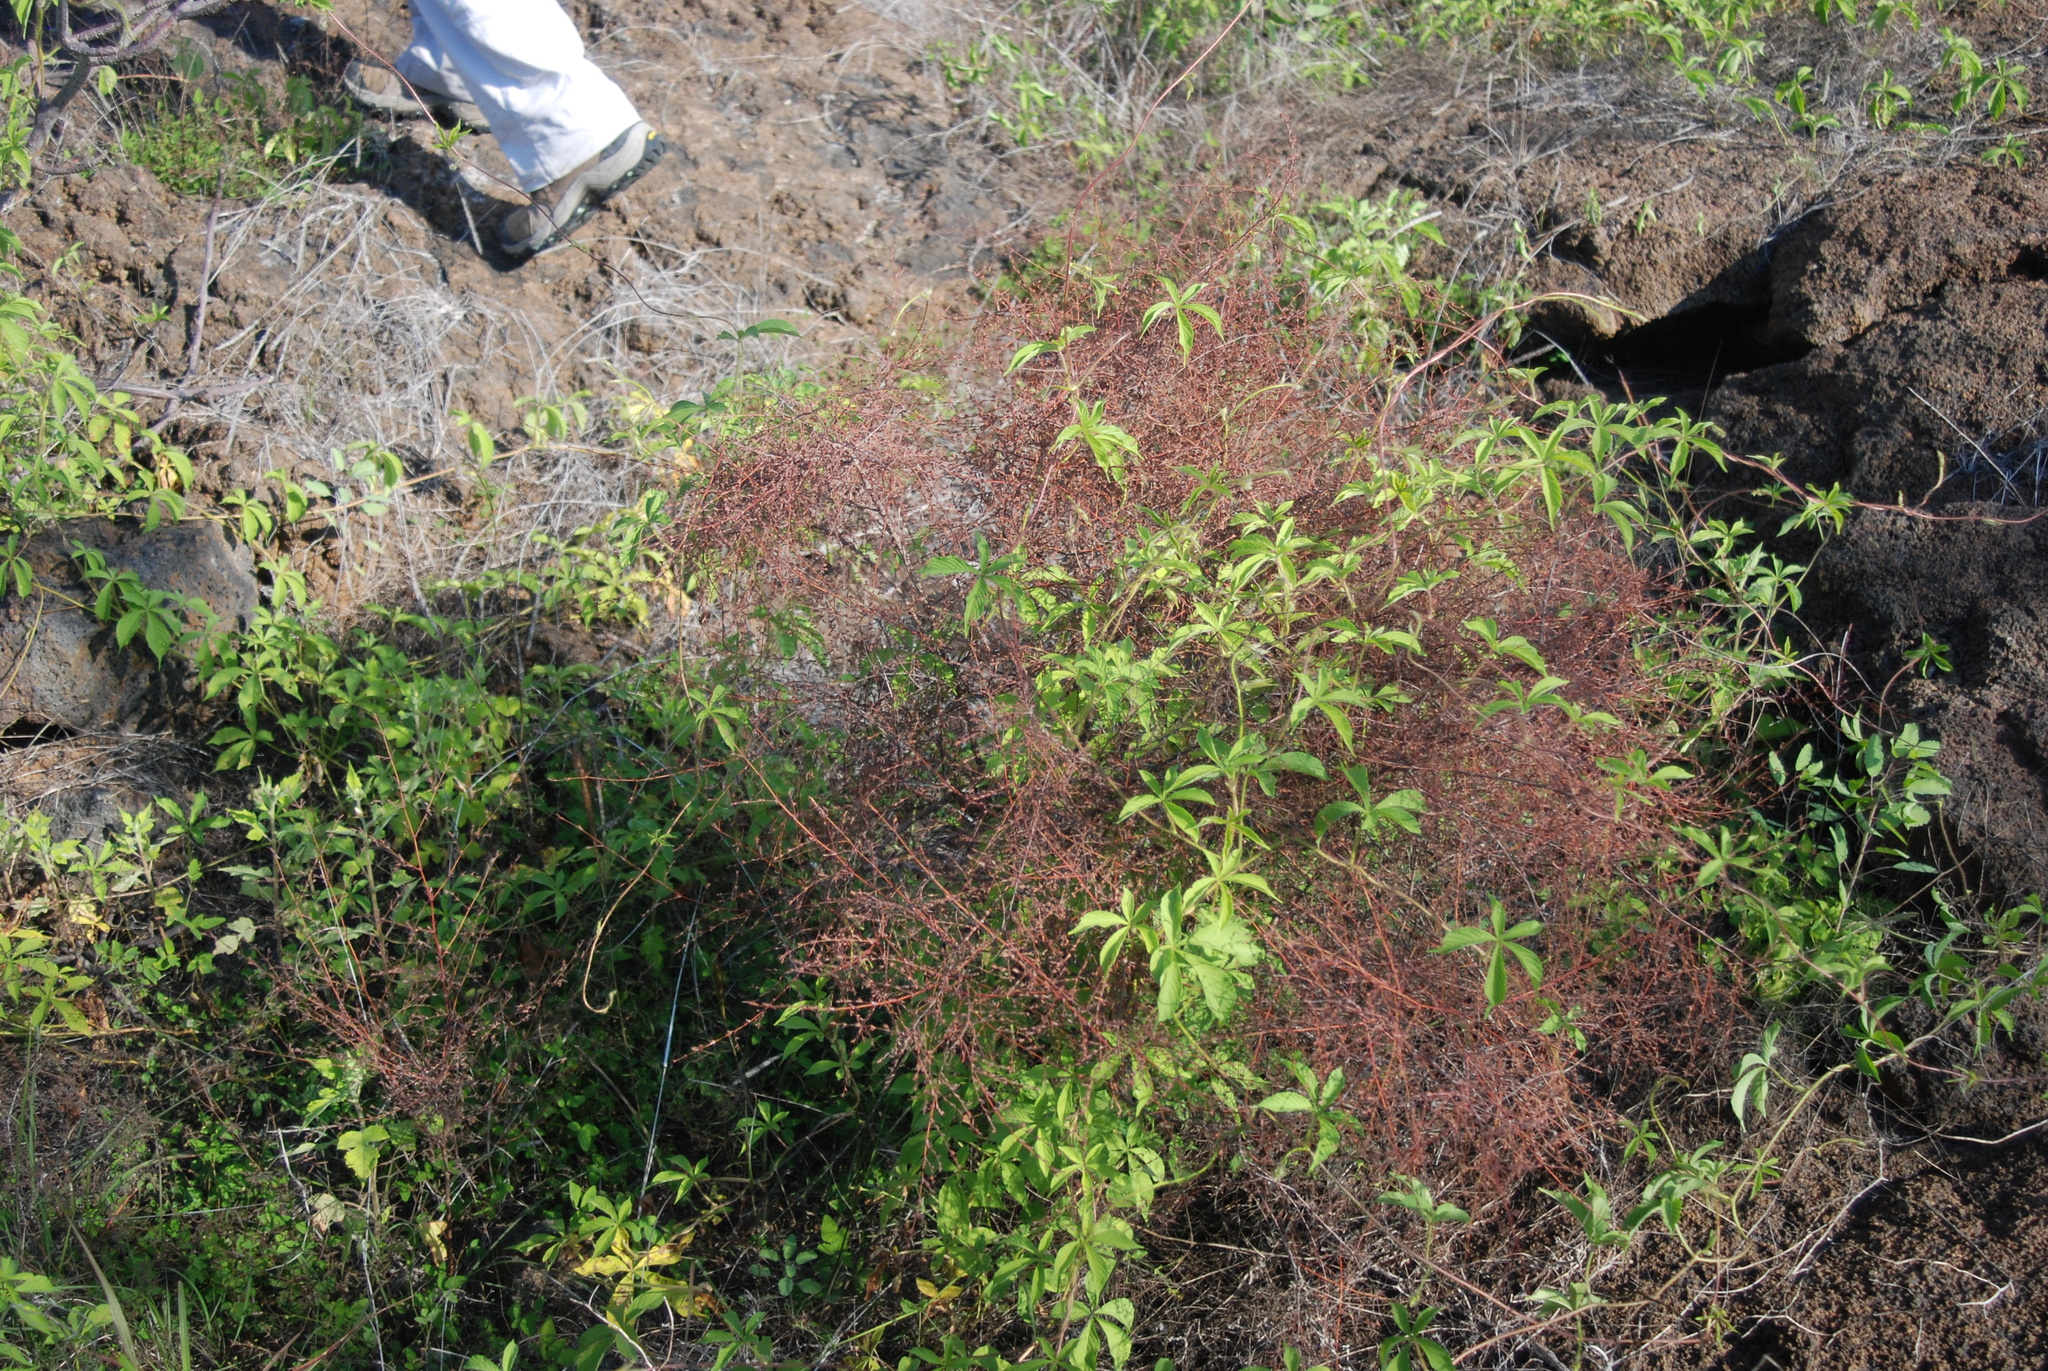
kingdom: Plantae
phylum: Tracheophyta
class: Magnoliopsida
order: Solanales
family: Convolvulaceae
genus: Distimake
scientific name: Distimake aegyptius
